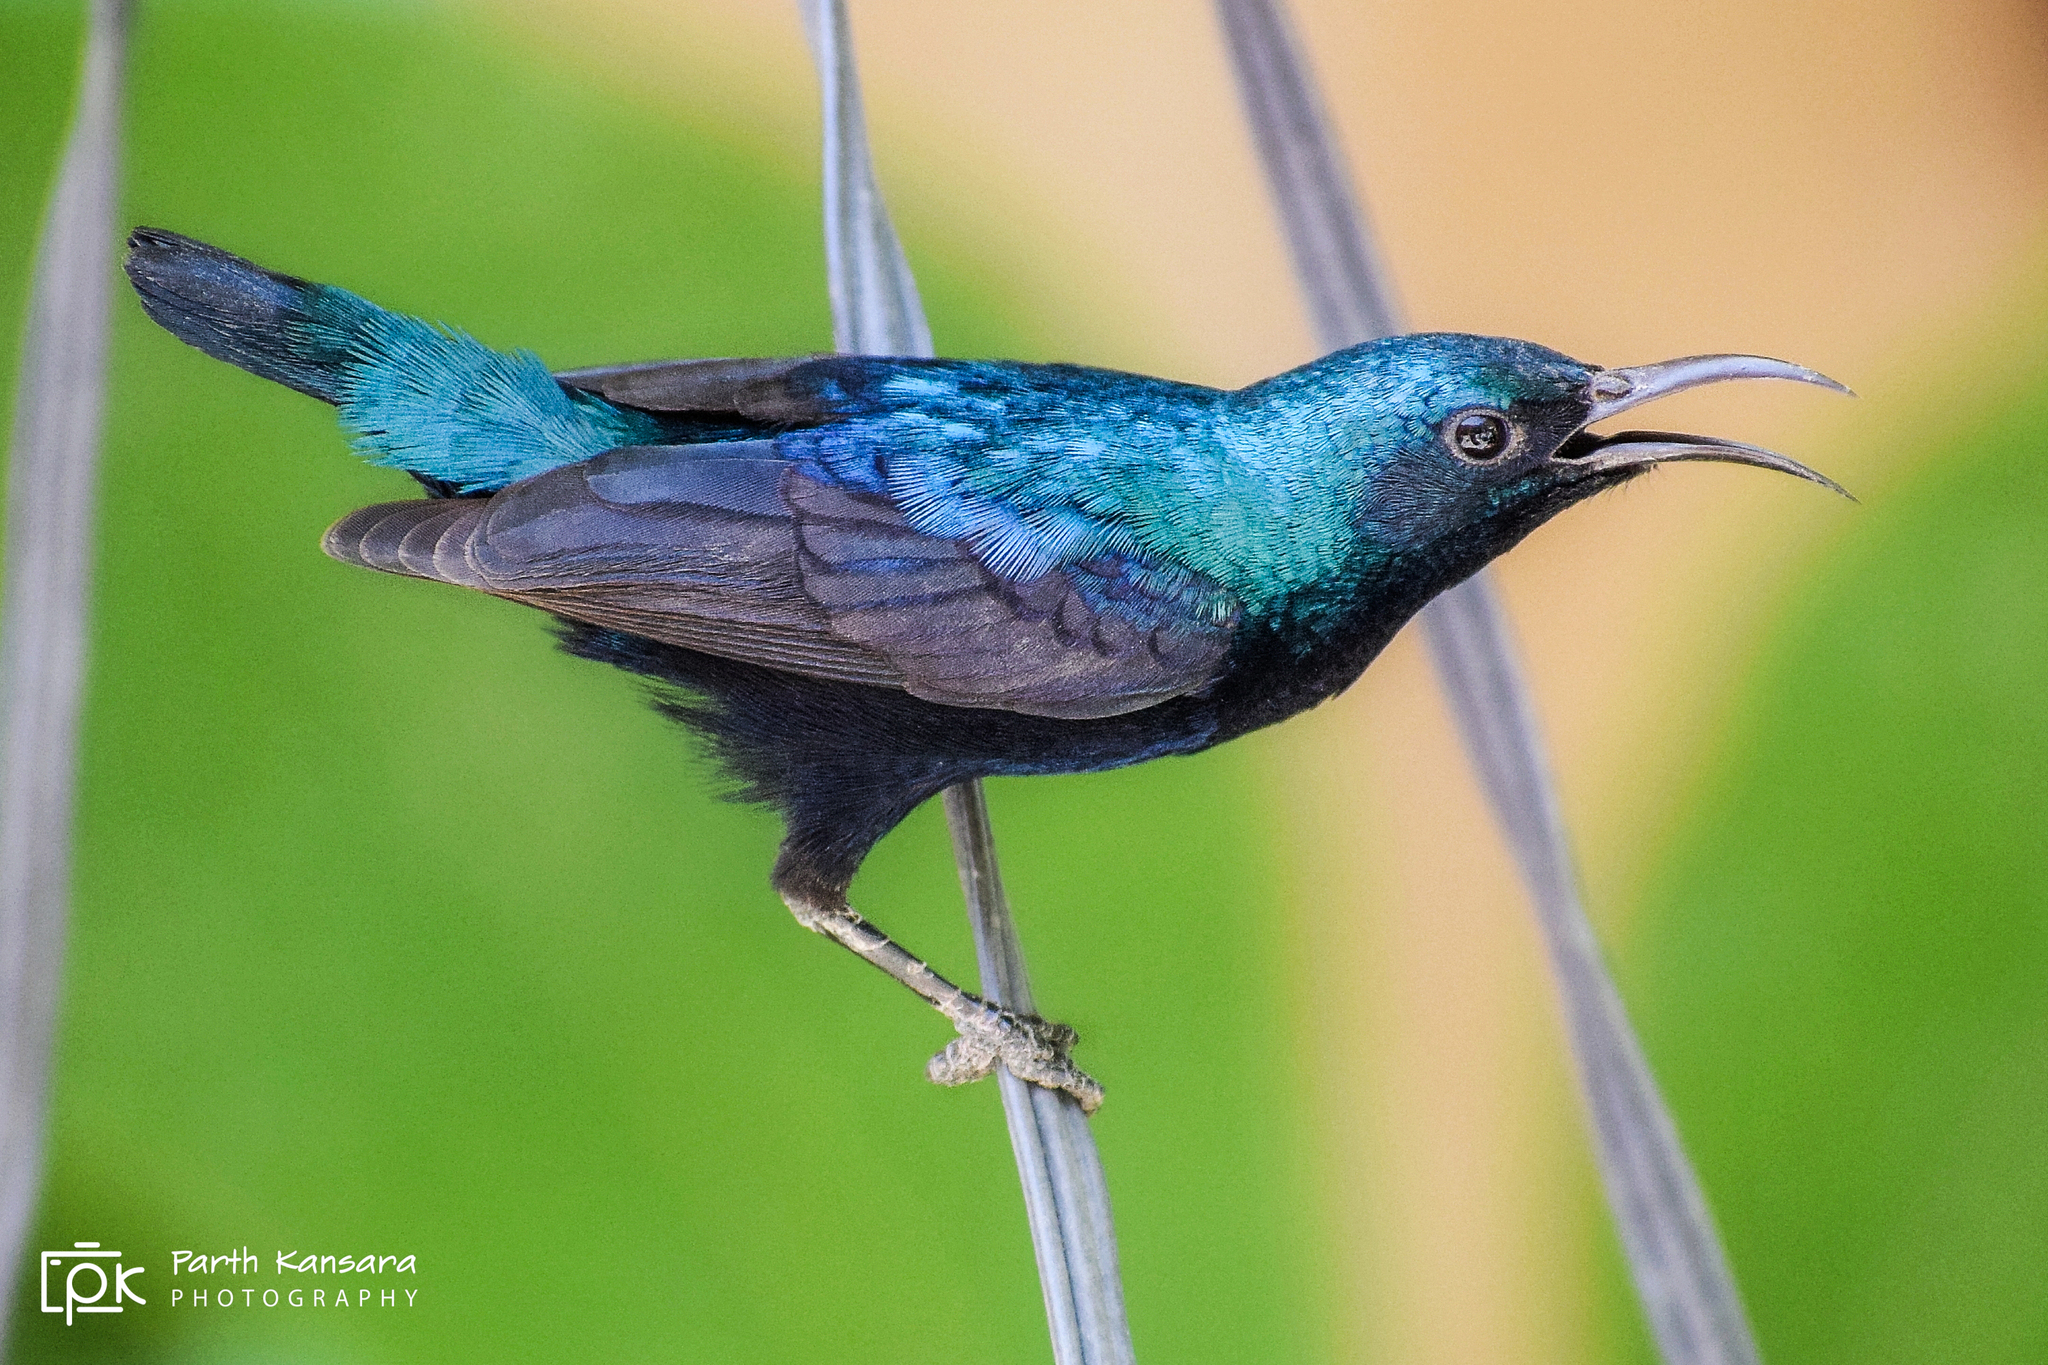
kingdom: Animalia
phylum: Chordata
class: Aves
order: Passeriformes
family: Nectariniidae
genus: Cinnyris
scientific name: Cinnyris asiaticus
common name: Purple sunbird
